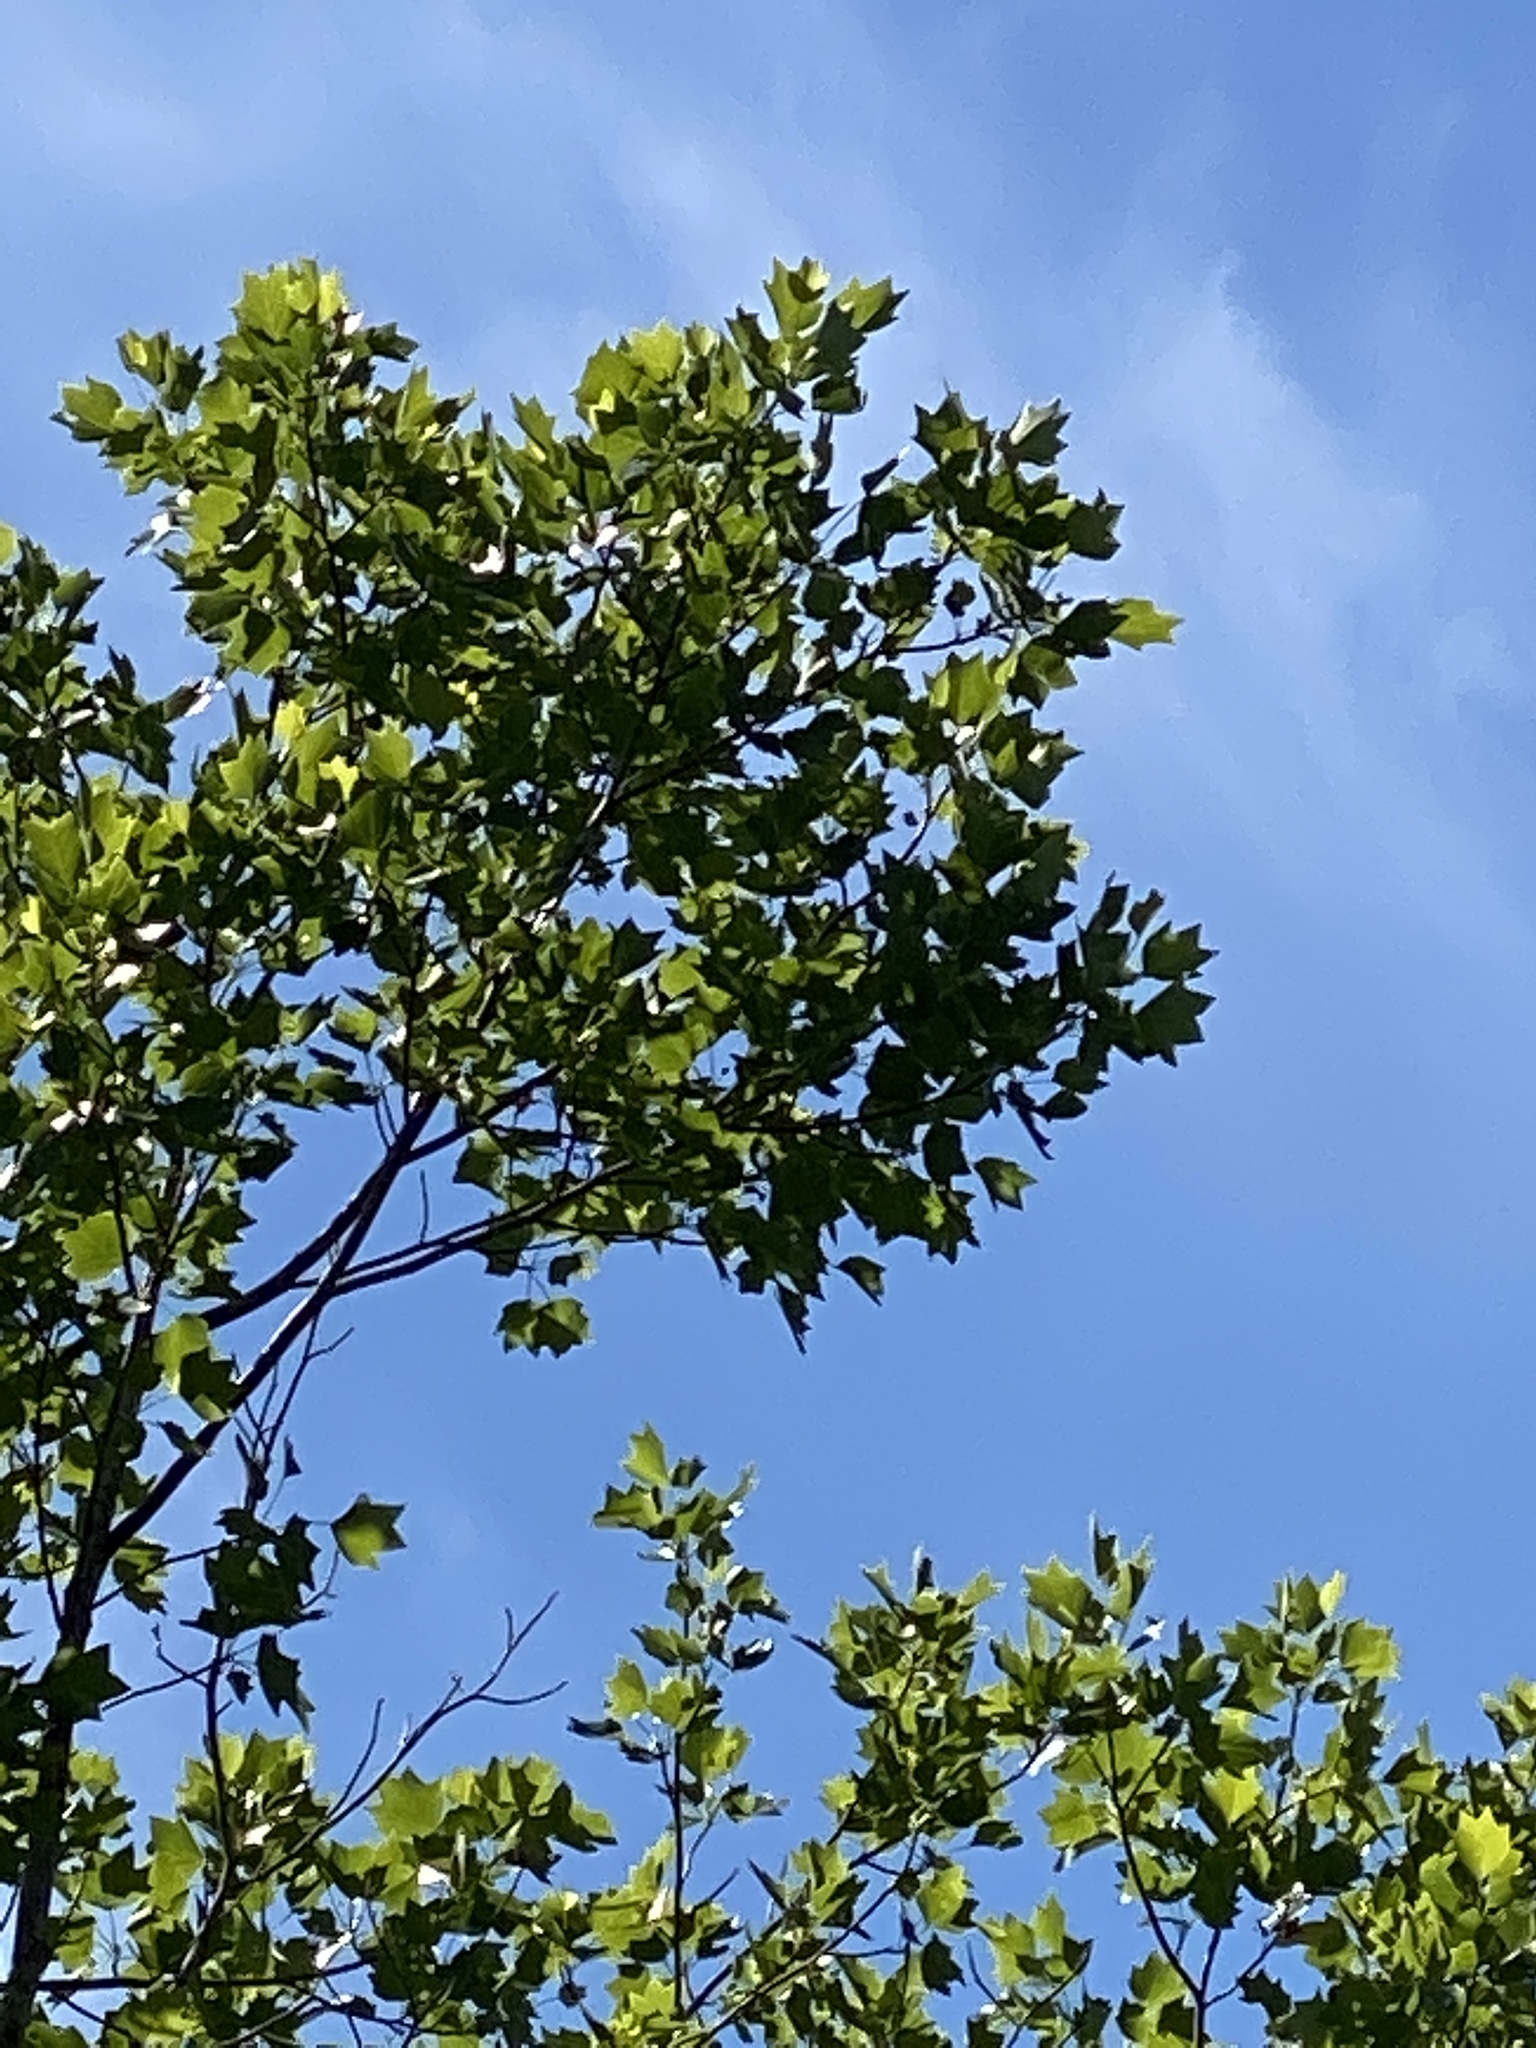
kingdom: Plantae
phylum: Tracheophyta
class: Magnoliopsida
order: Magnoliales
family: Magnoliaceae
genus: Liriodendron
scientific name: Liriodendron tulipifera
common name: Tulip tree
